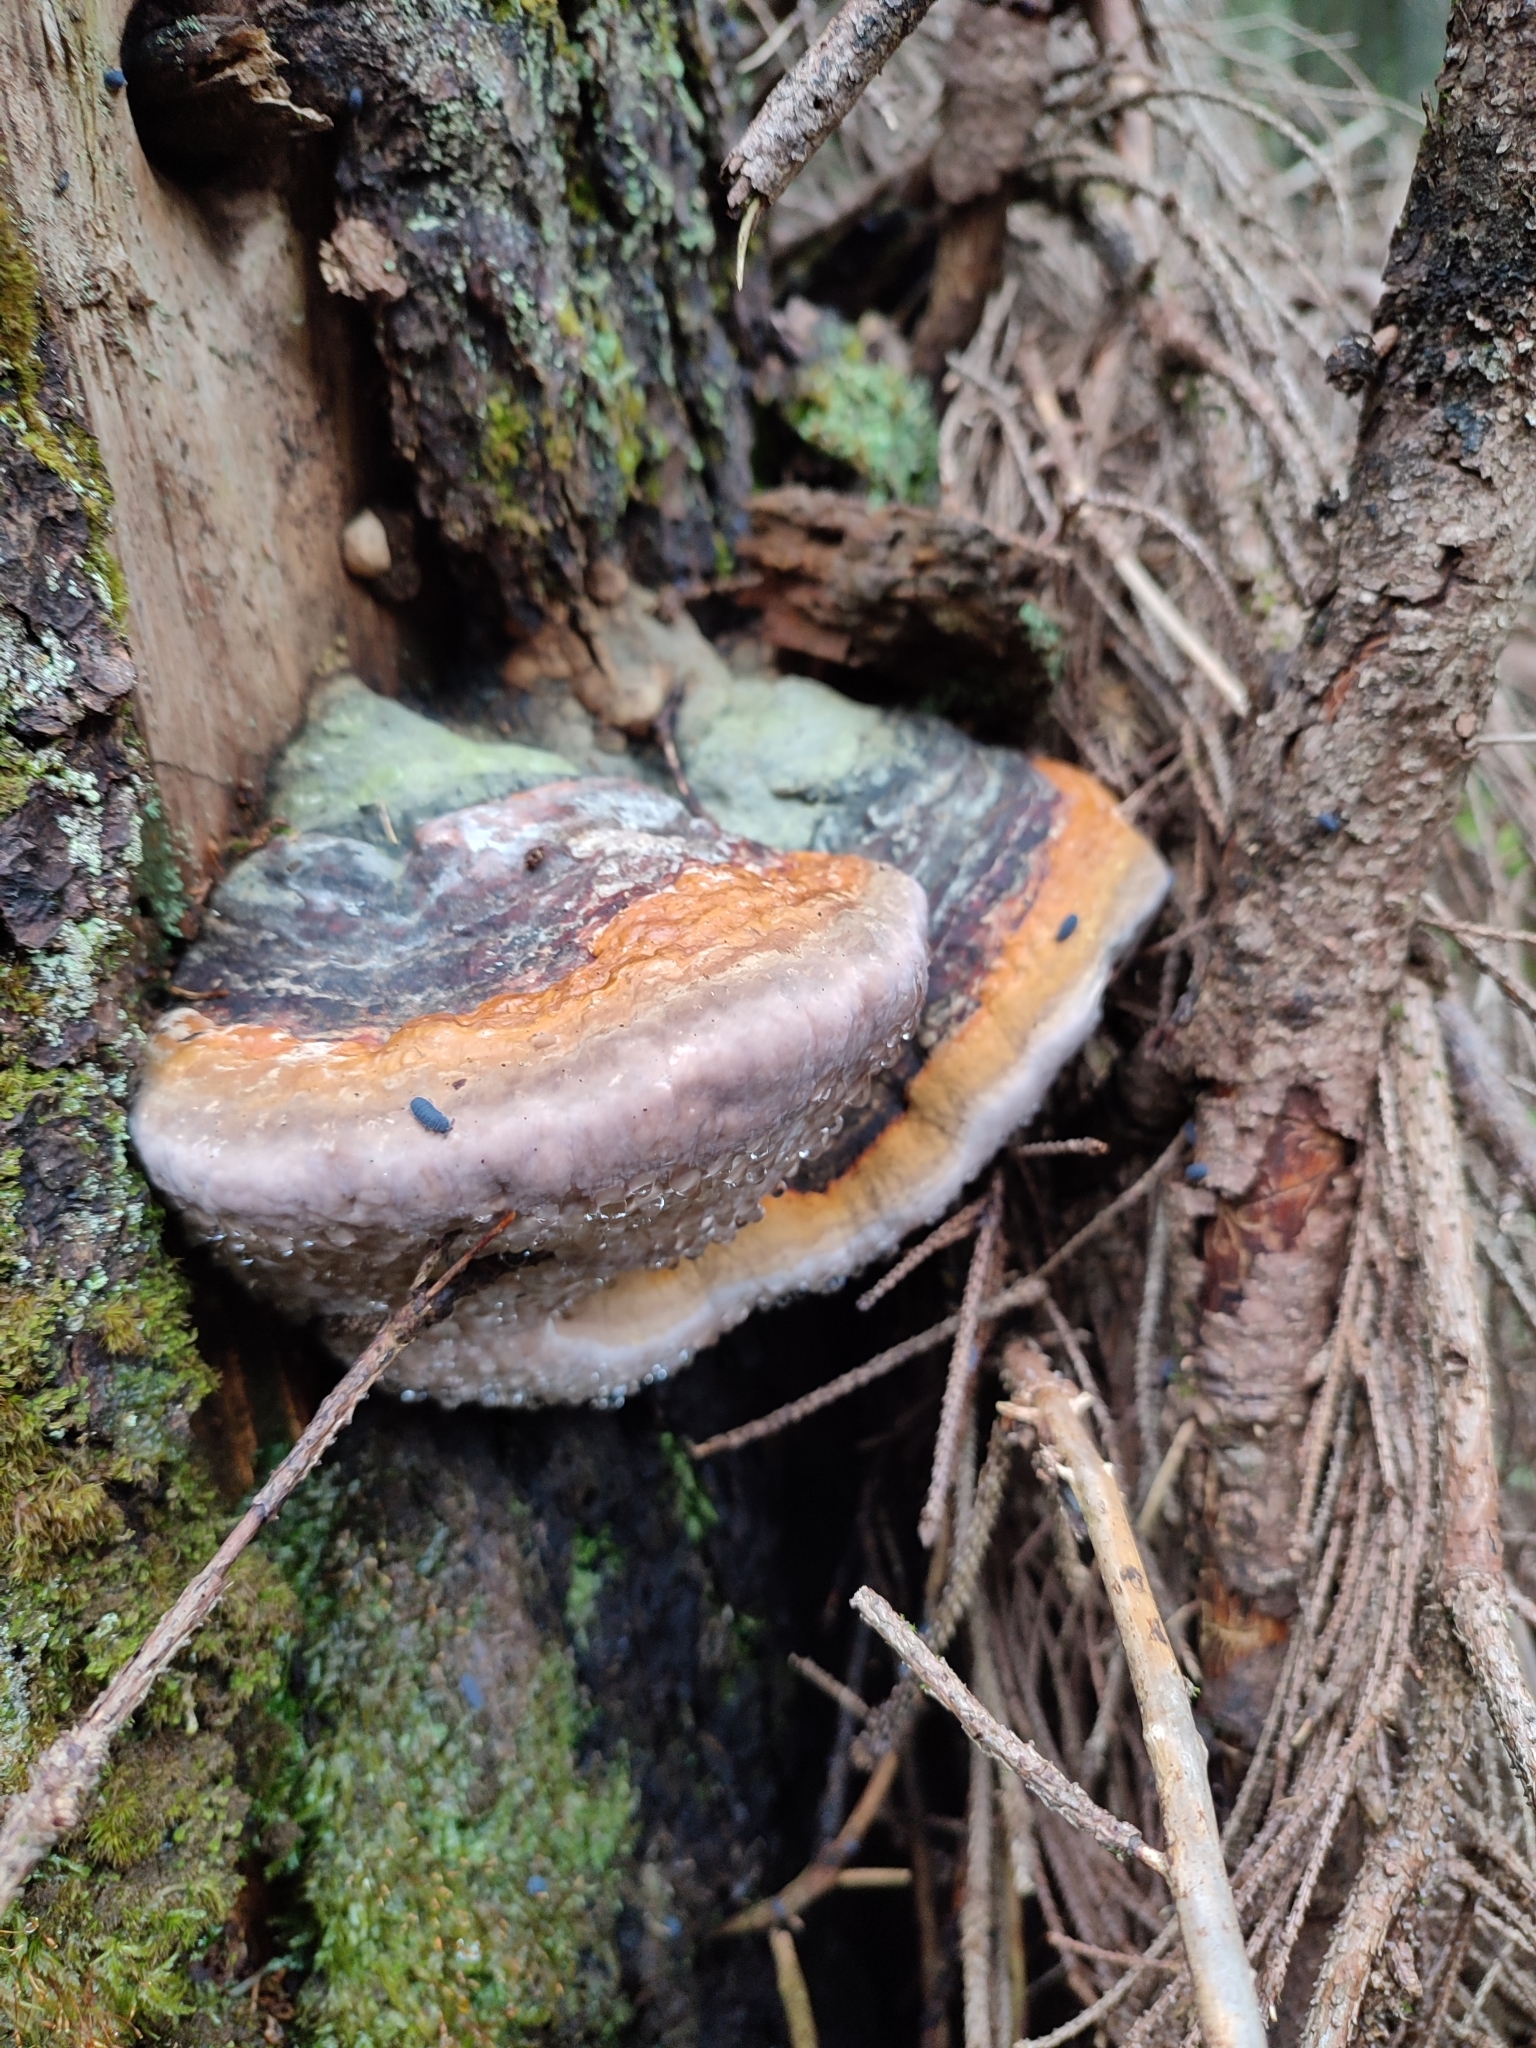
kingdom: Fungi
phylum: Basidiomycota
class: Agaricomycetes
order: Polyporales
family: Fomitopsidaceae
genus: Fomitopsis
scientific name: Fomitopsis pinicola
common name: Red-belted bracket
